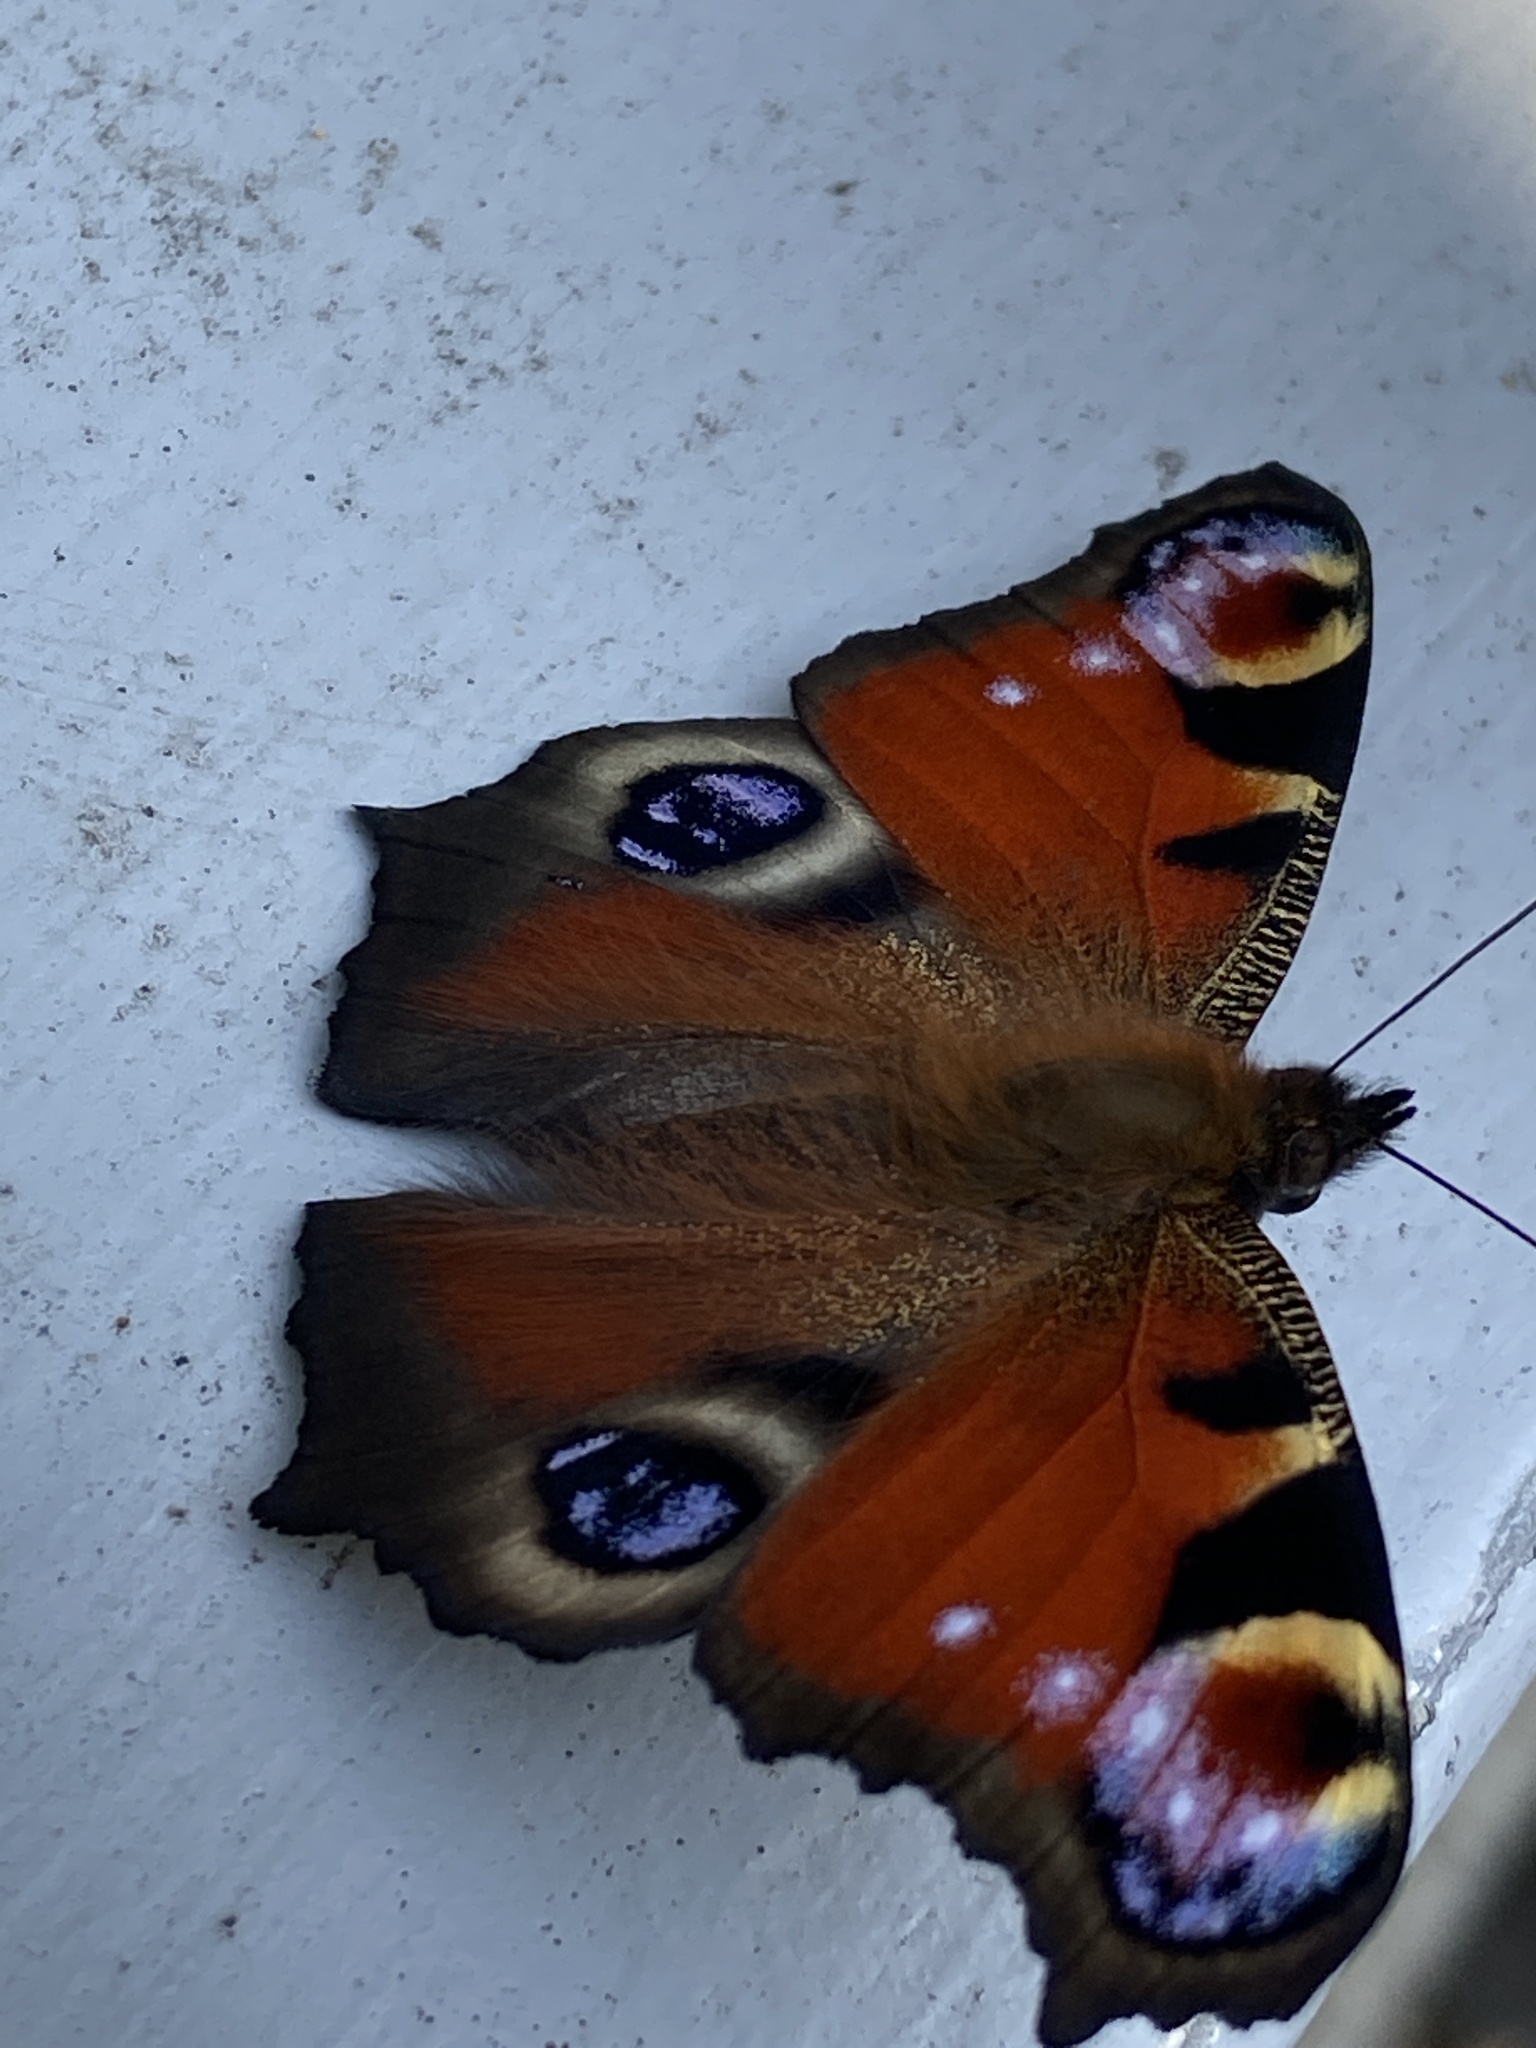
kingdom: Animalia
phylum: Arthropoda
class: Insecta
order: Lepidoptera
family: Nymphalidae
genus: Aglais
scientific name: Aglais io
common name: Peacock
